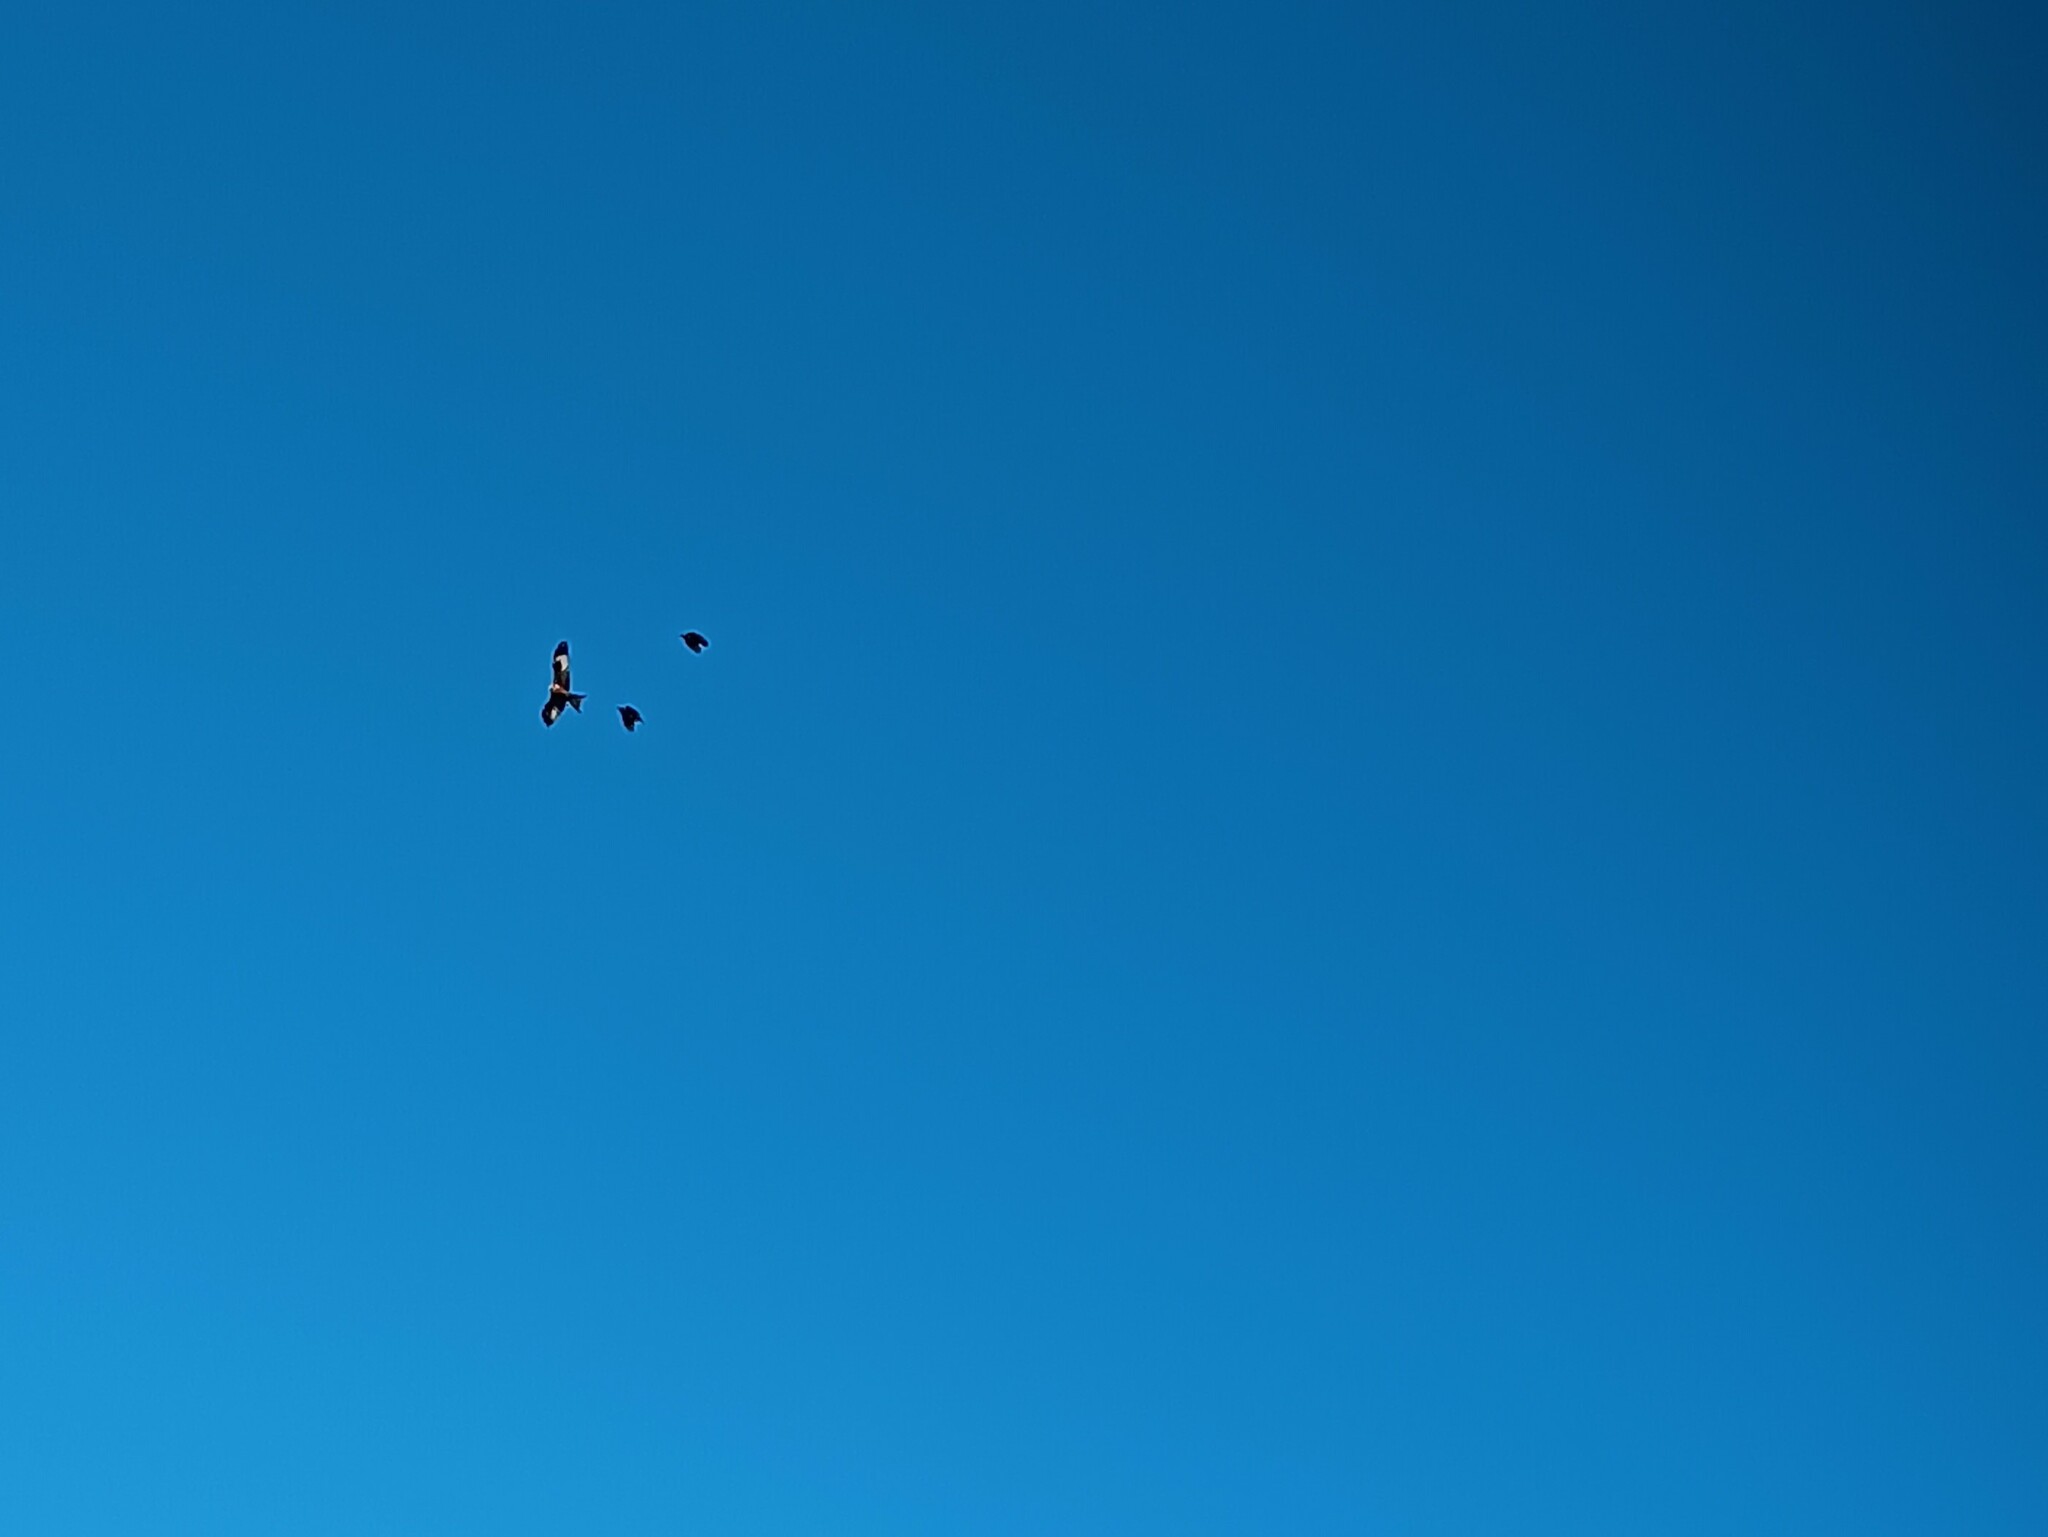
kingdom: Animalia
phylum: Chordata
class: Aves
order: Accipitriformes
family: Accipitridae
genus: Milvus
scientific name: Milvus milvus
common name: Red kite
